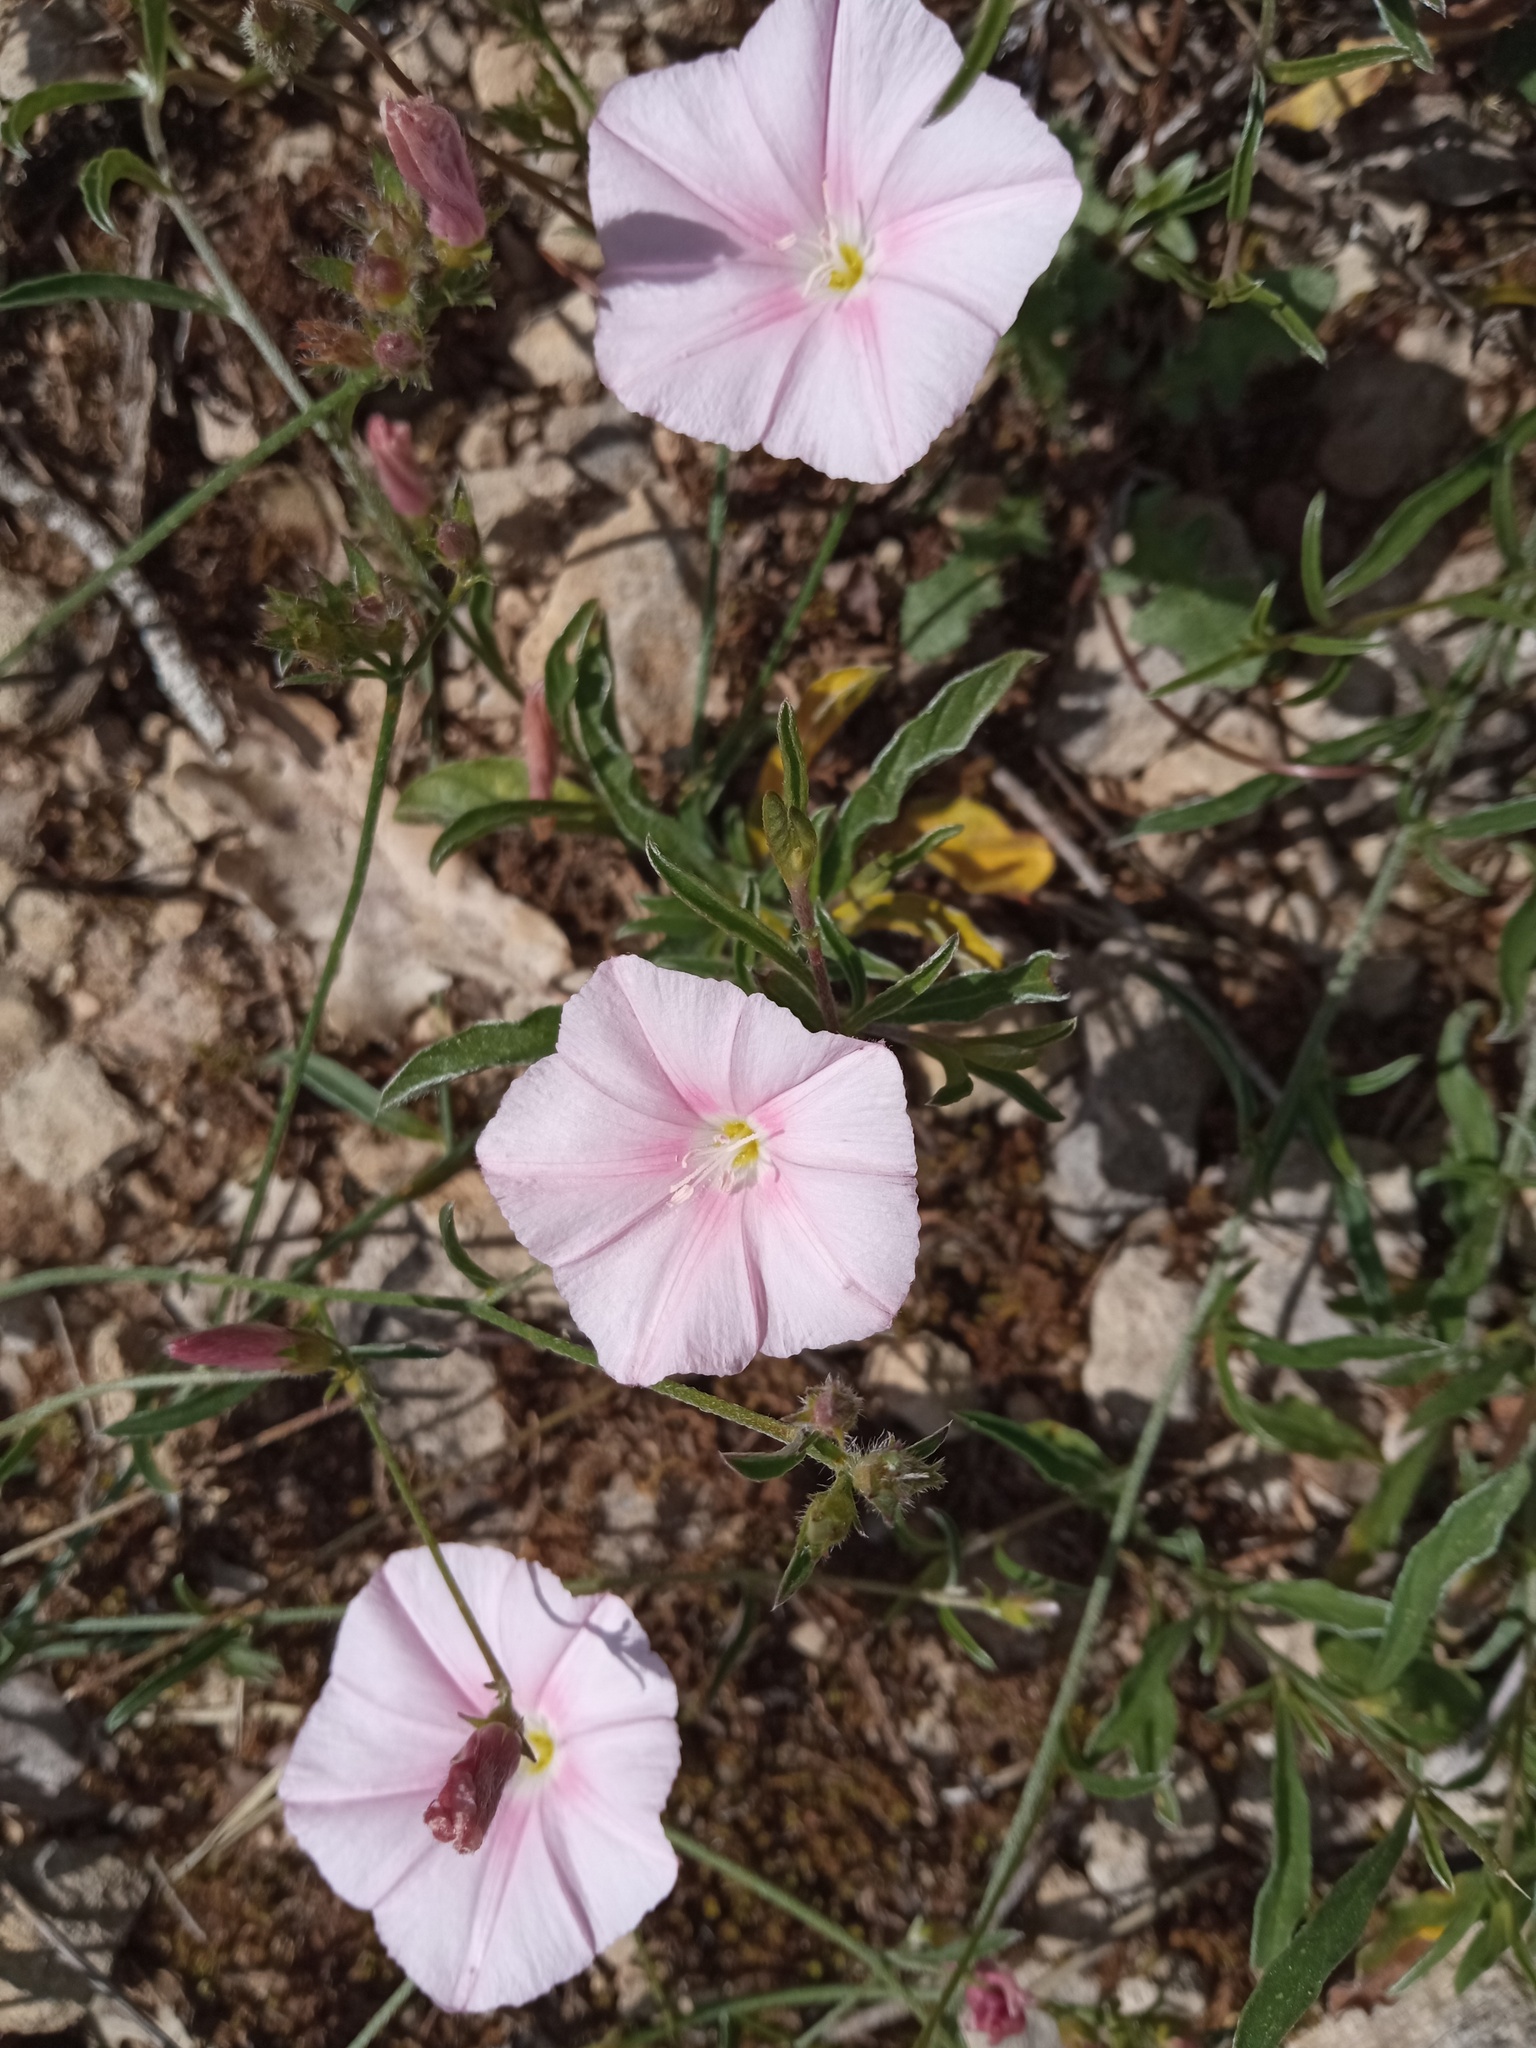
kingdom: Plantae
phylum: Tracheophyta
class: Magnoliopsida
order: Solanales
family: Convolvulaceae
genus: Convolvulus
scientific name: Convolvulus cantabrica
